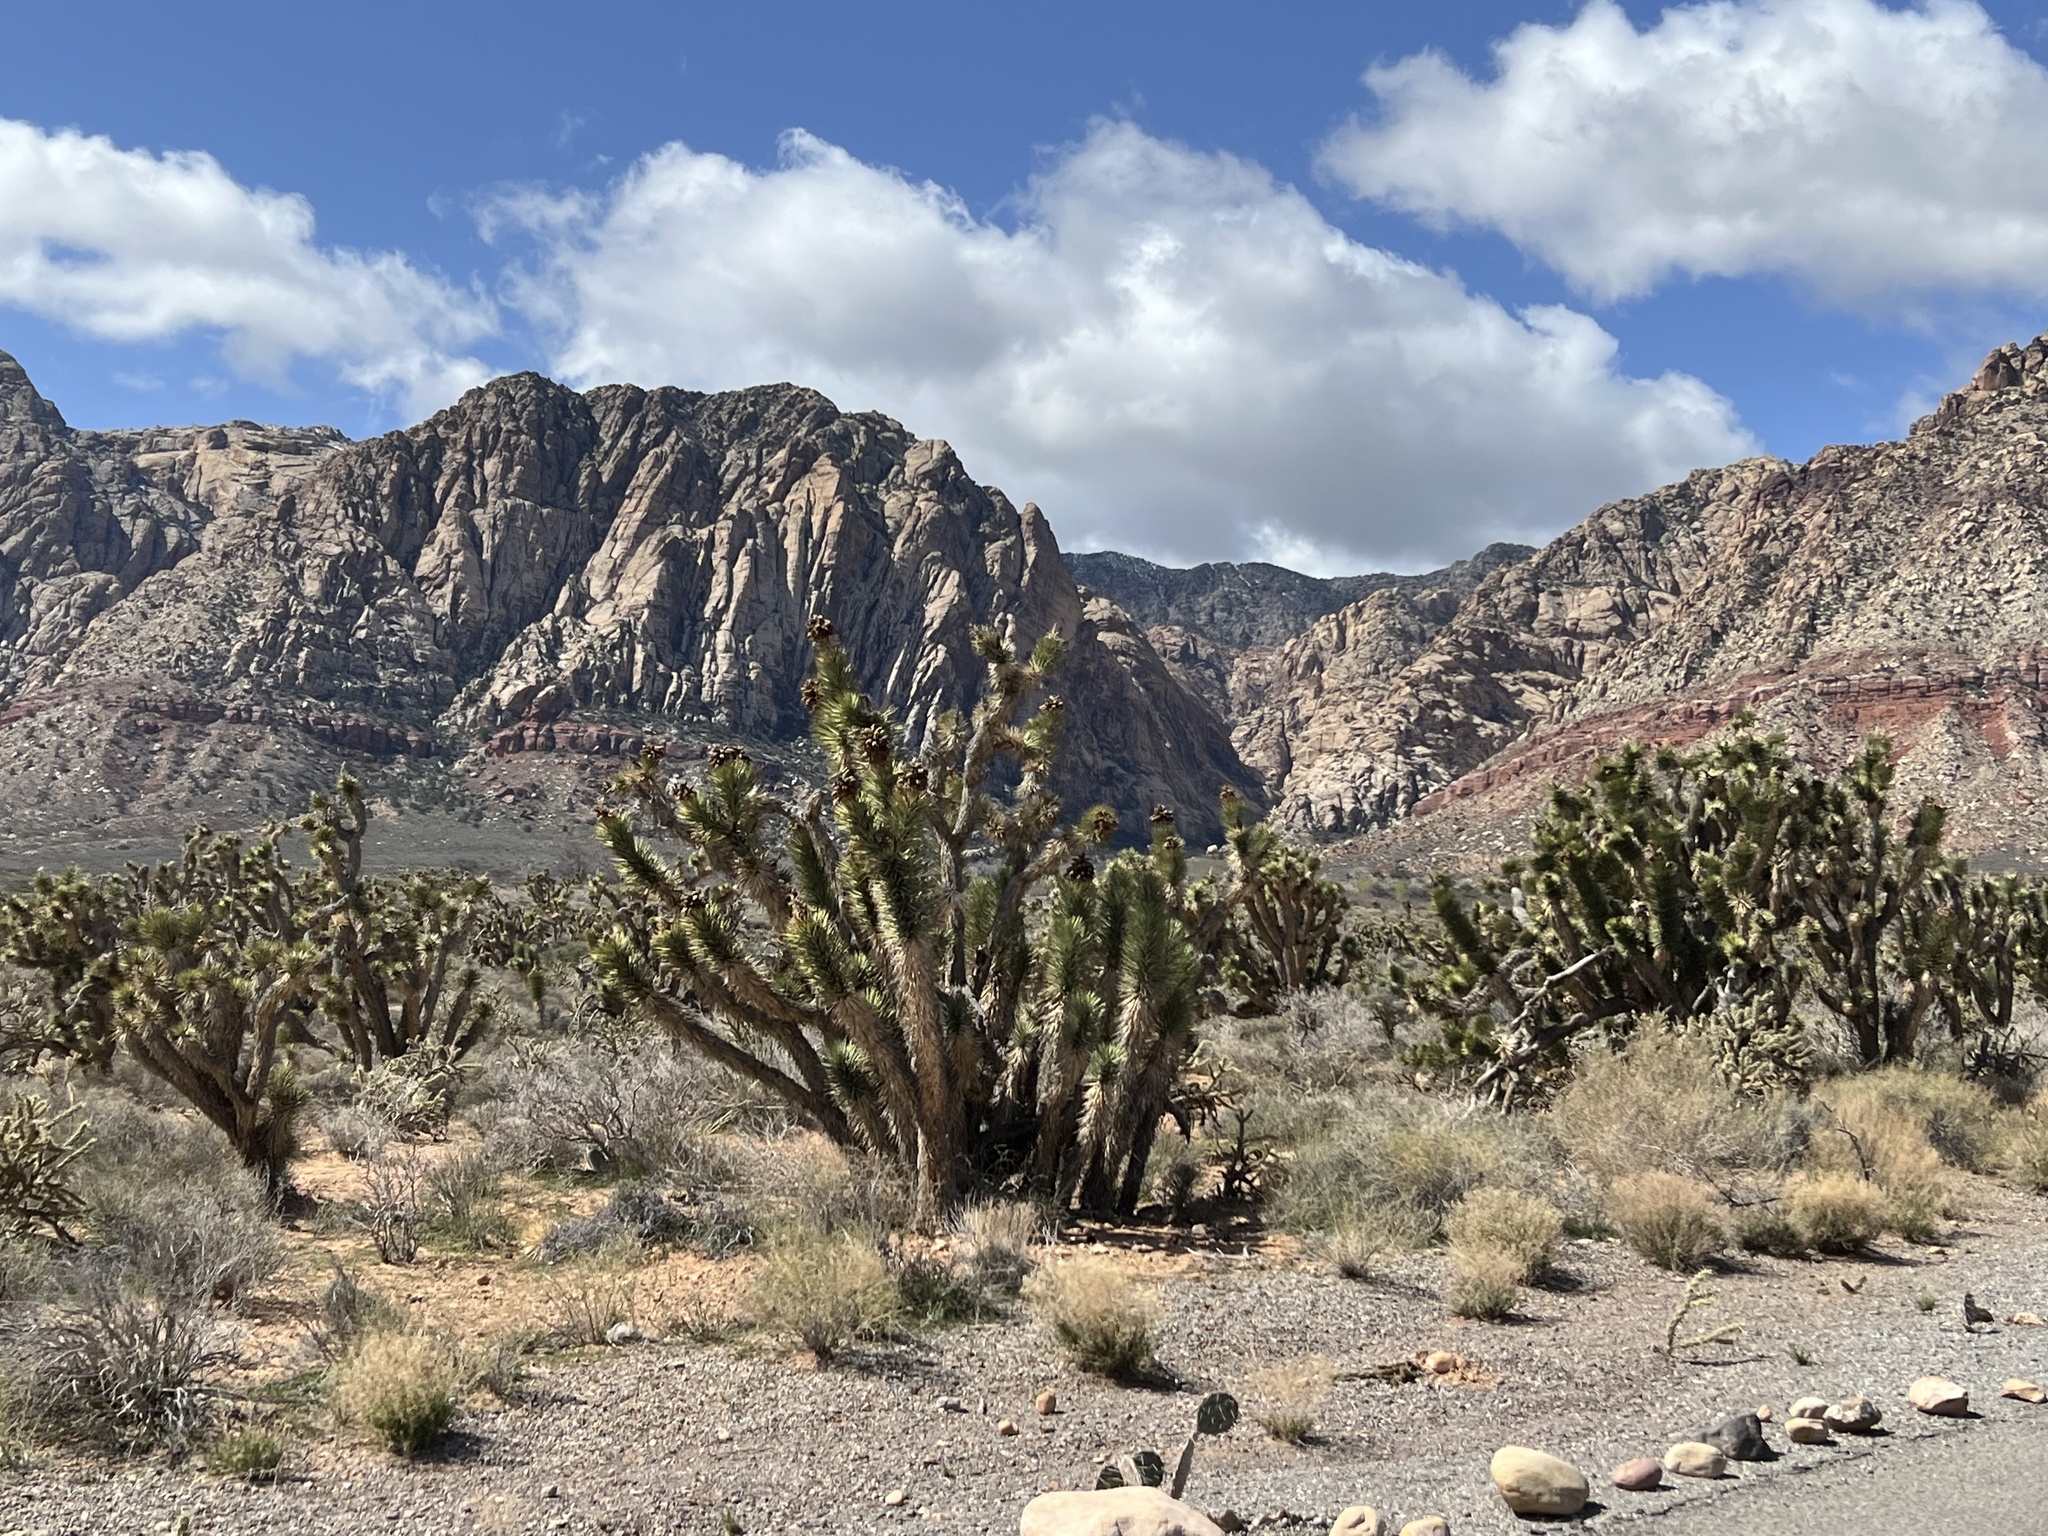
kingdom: Plantae
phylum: Tracheophyta
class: Liliopsida
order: Asparagales
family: Asparagaceae
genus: Yucca
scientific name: Yucca brevifolia
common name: Joshua tree
